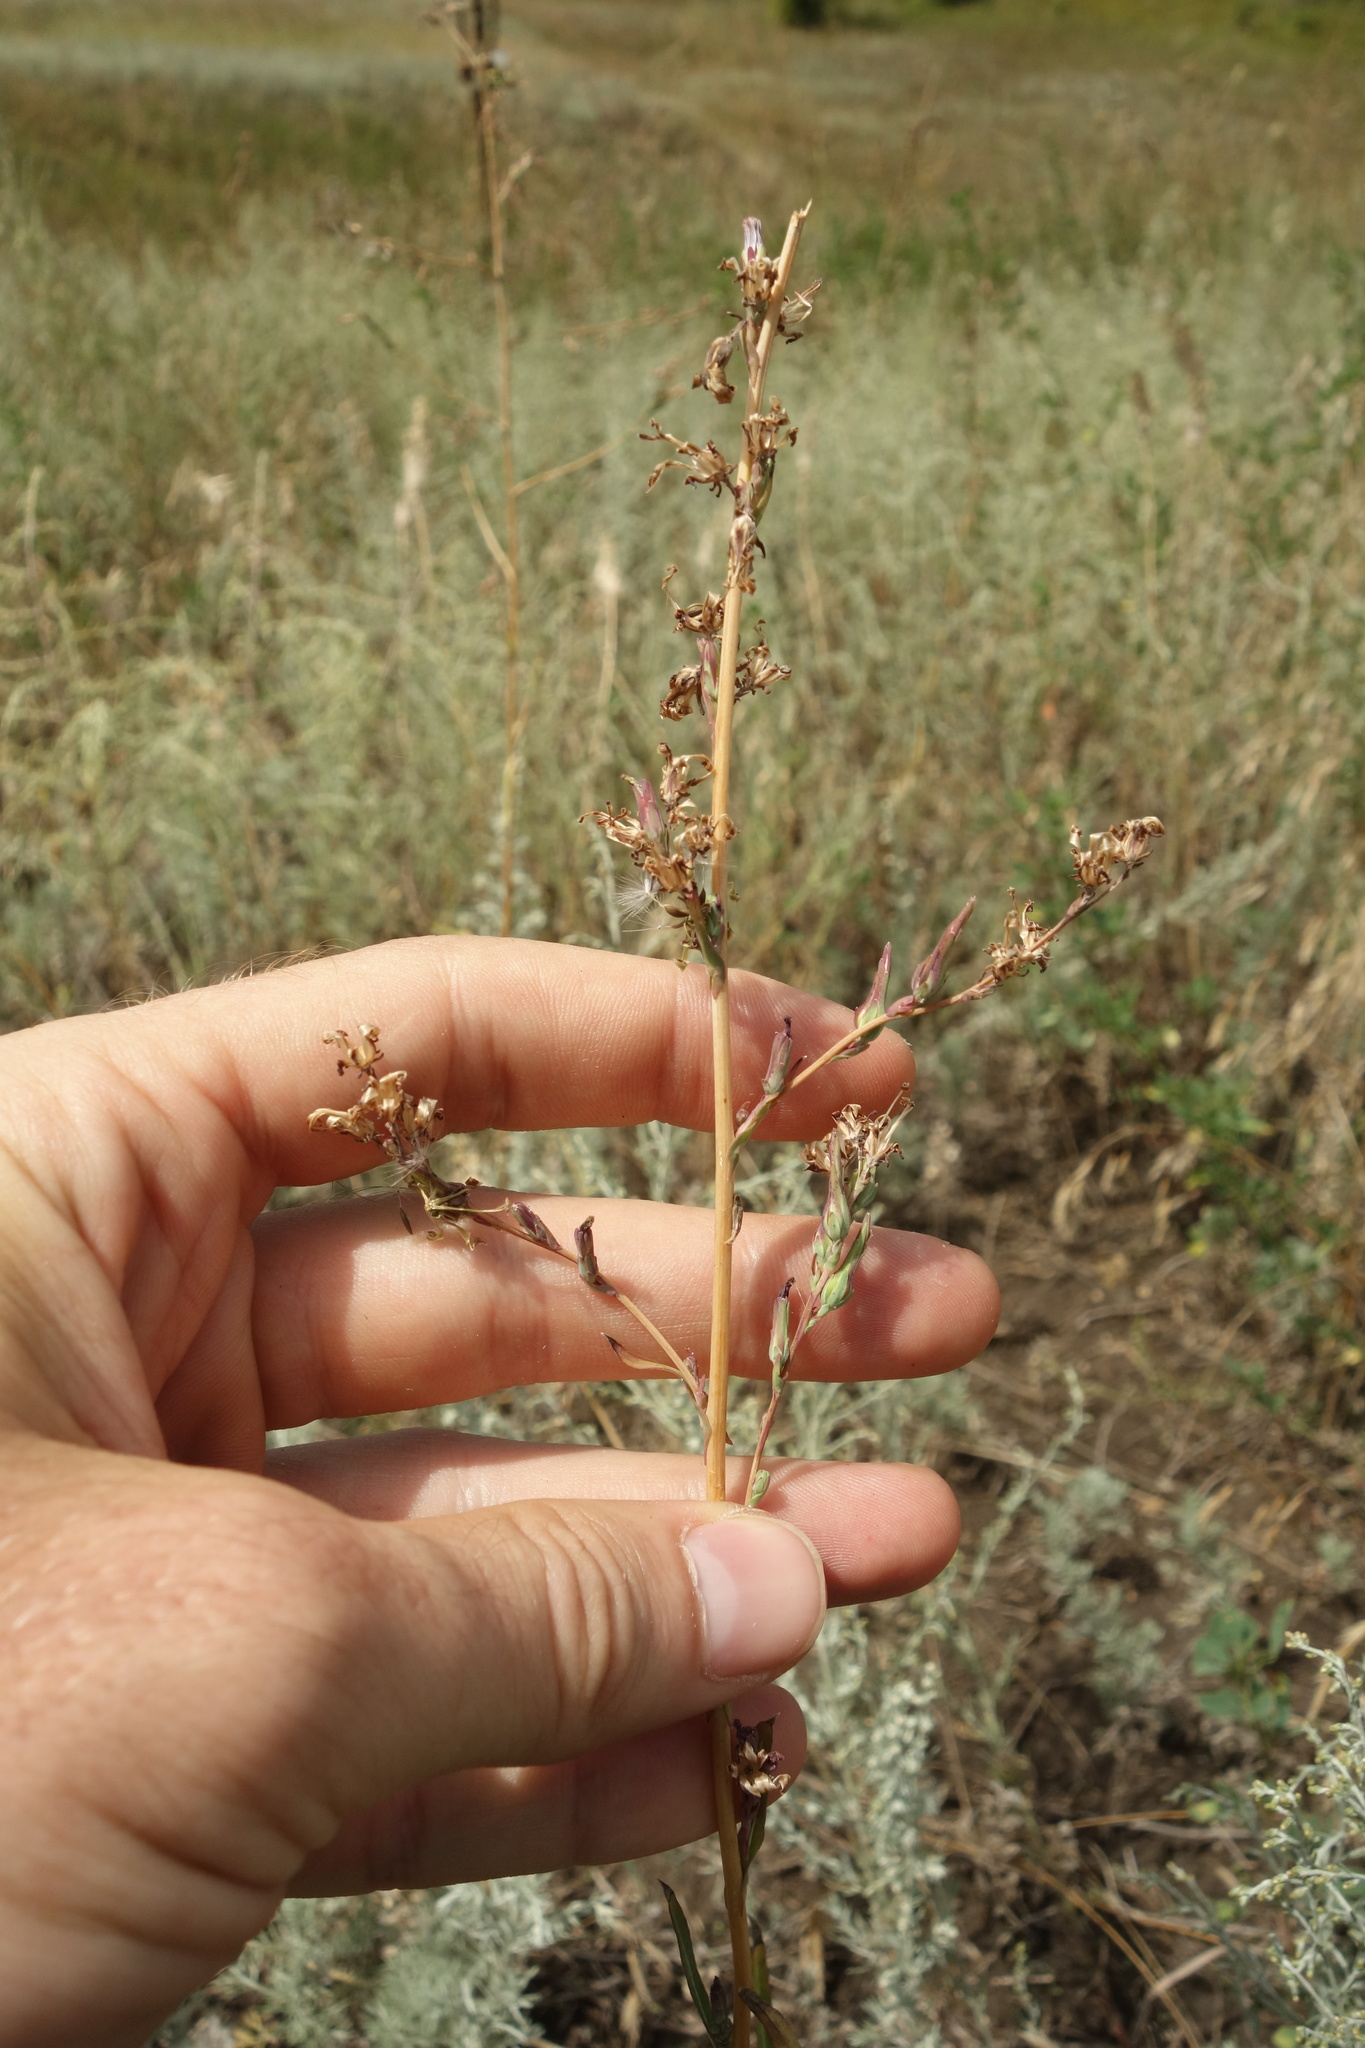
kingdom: Plantae
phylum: Tracheophyta
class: Magnoliopsida
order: Asterales
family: Asteraceae
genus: Lactuca
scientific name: Lactuca saligna
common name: Wild lettuce
